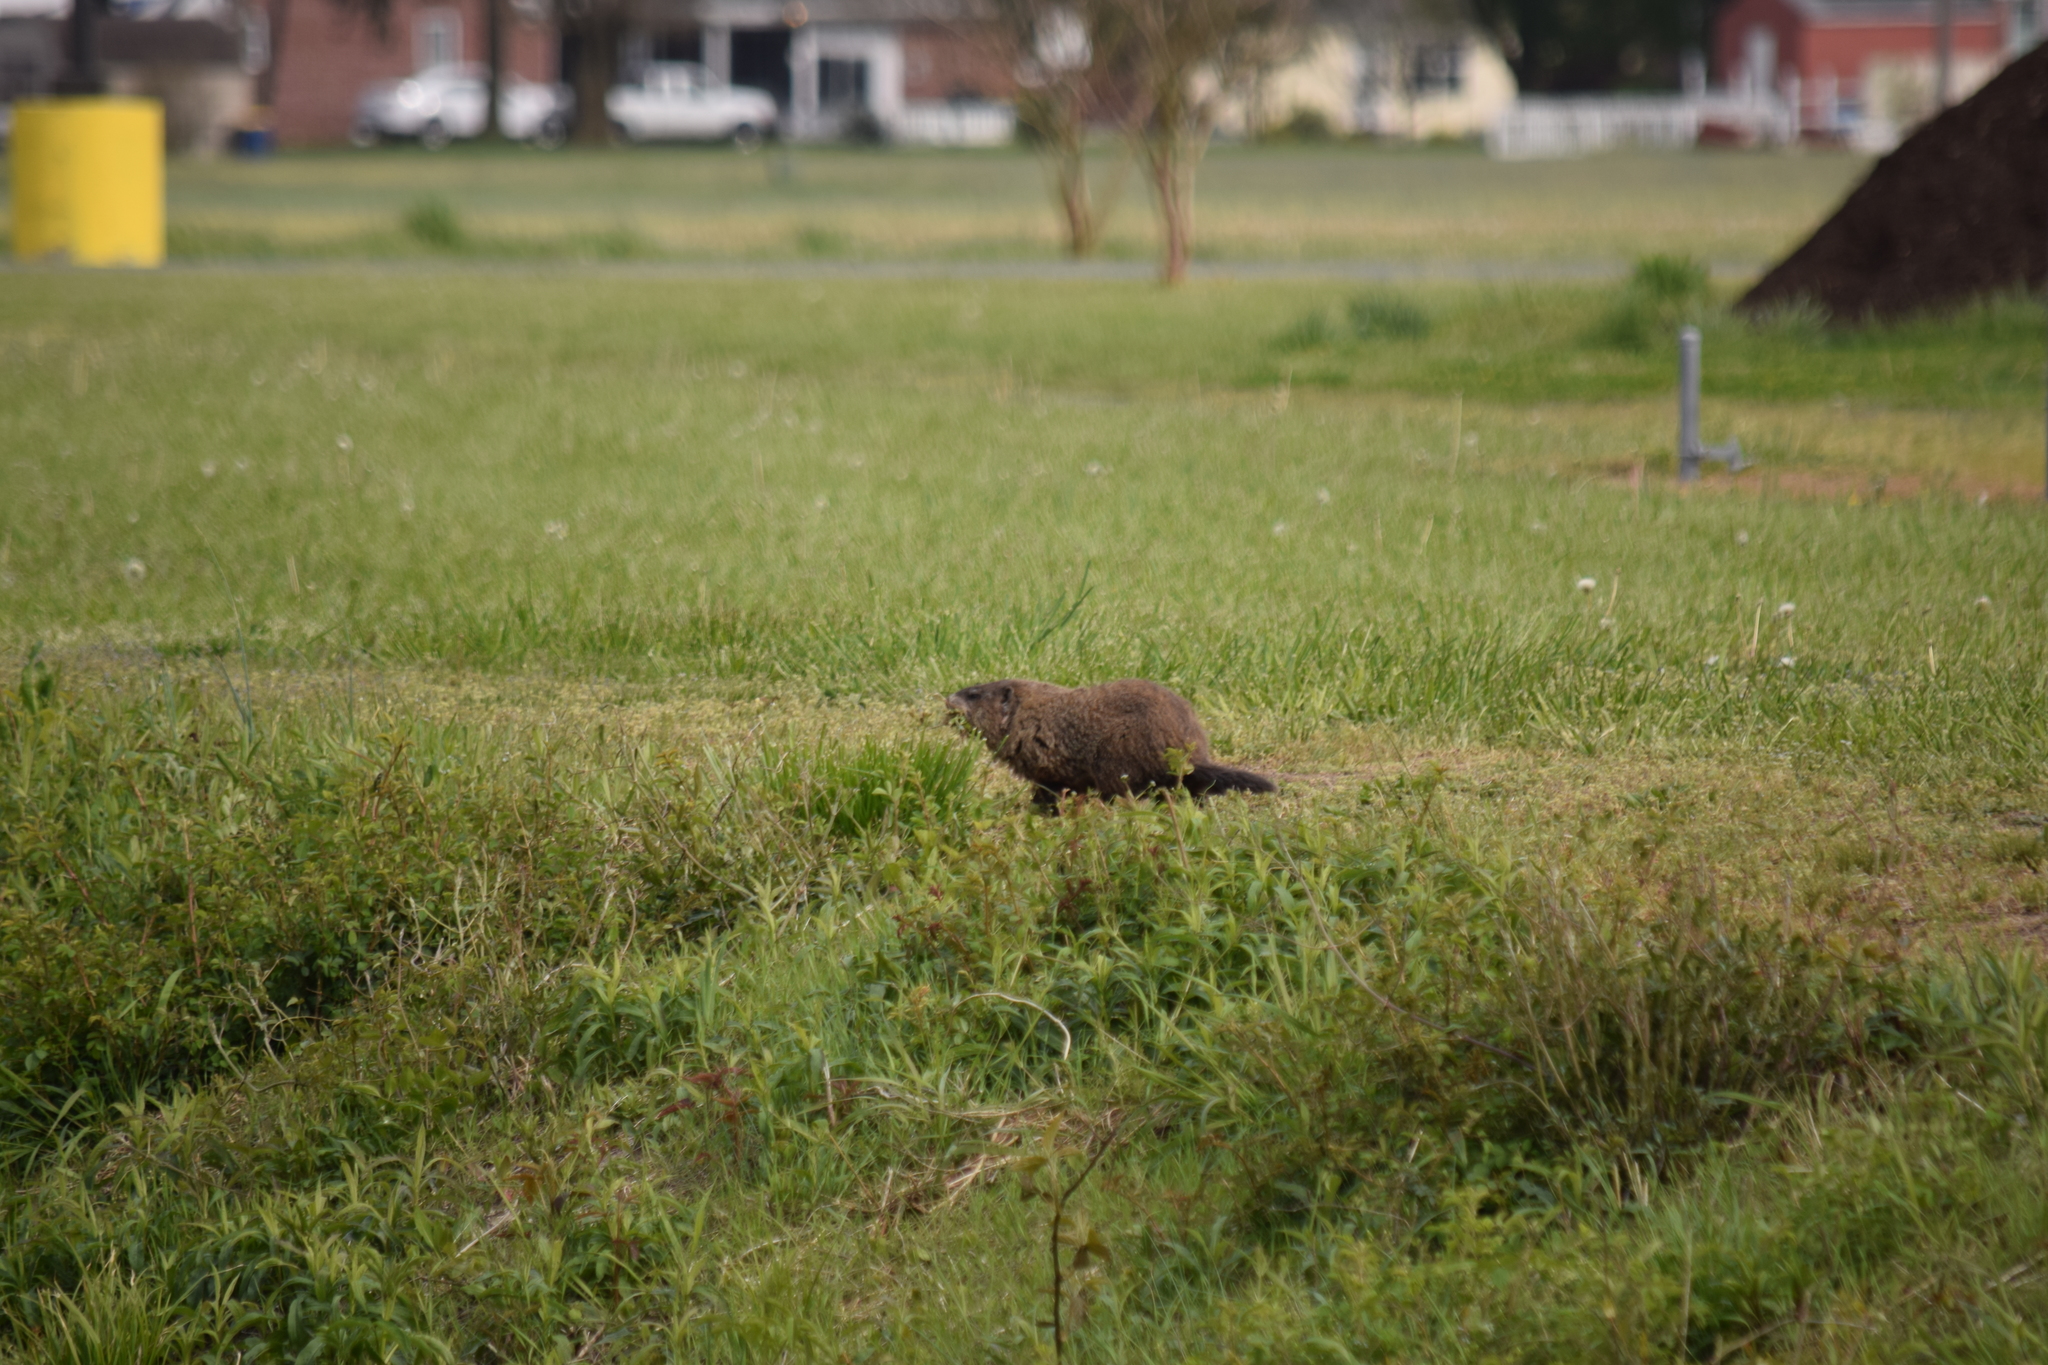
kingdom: Animalia
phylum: Chordata
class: Mammalia
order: Rodentia
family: Sciuridae
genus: Marmota
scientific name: Marmota monax
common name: Groundhog
